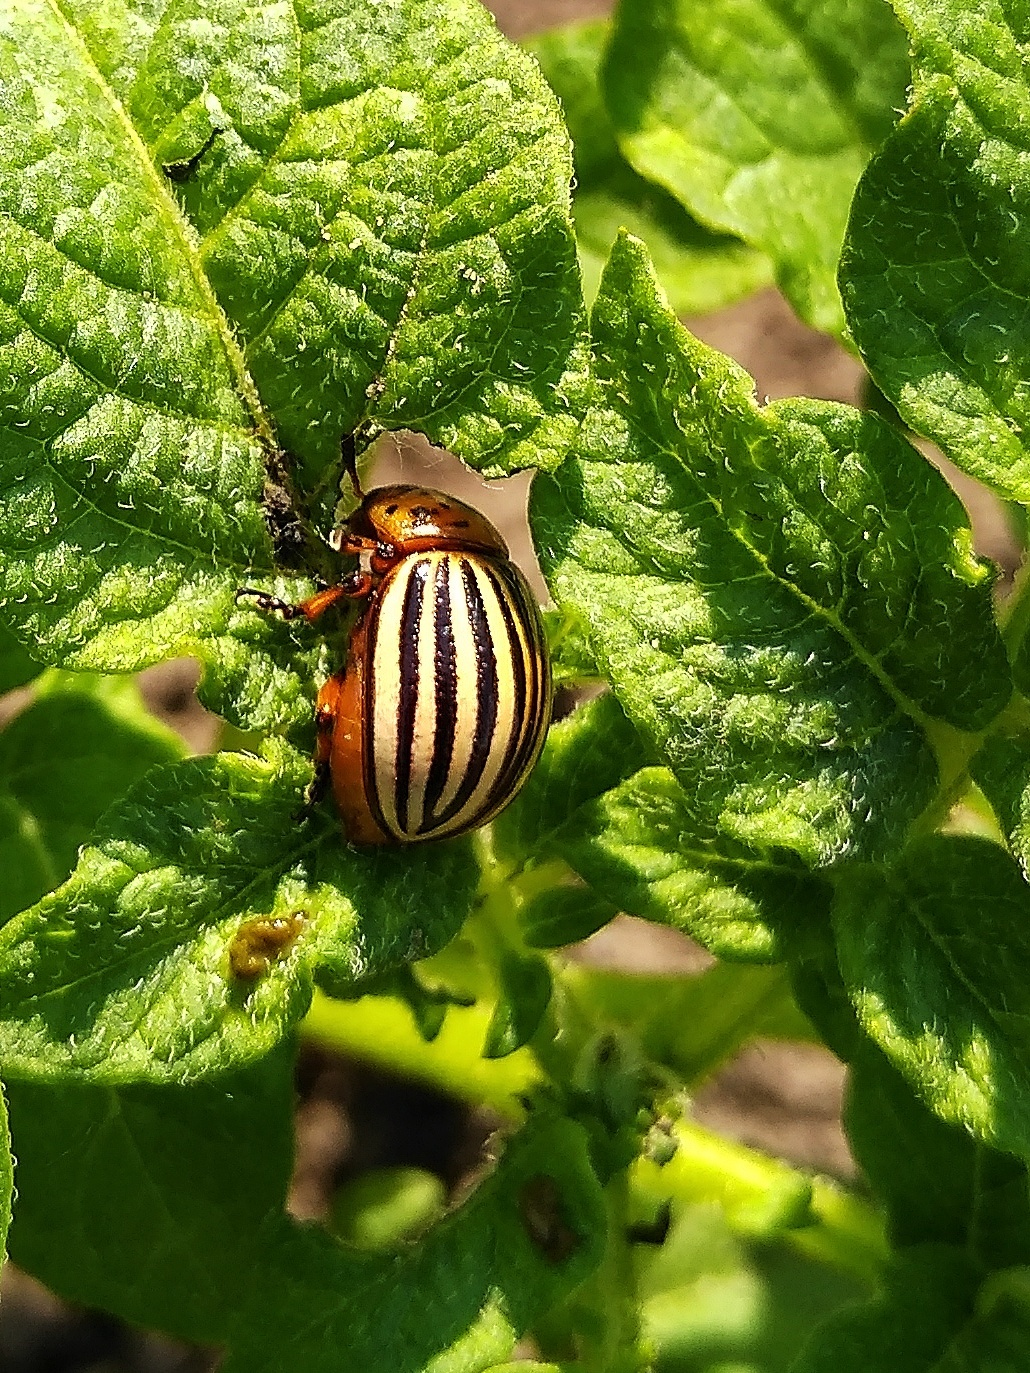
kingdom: Animalia
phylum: Arthropoda
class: Insecta
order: Coleoptera
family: Chrysomelidae
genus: Leptinotarsa
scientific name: Leptinotarsa decemlineata
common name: Colorado potato beetle
